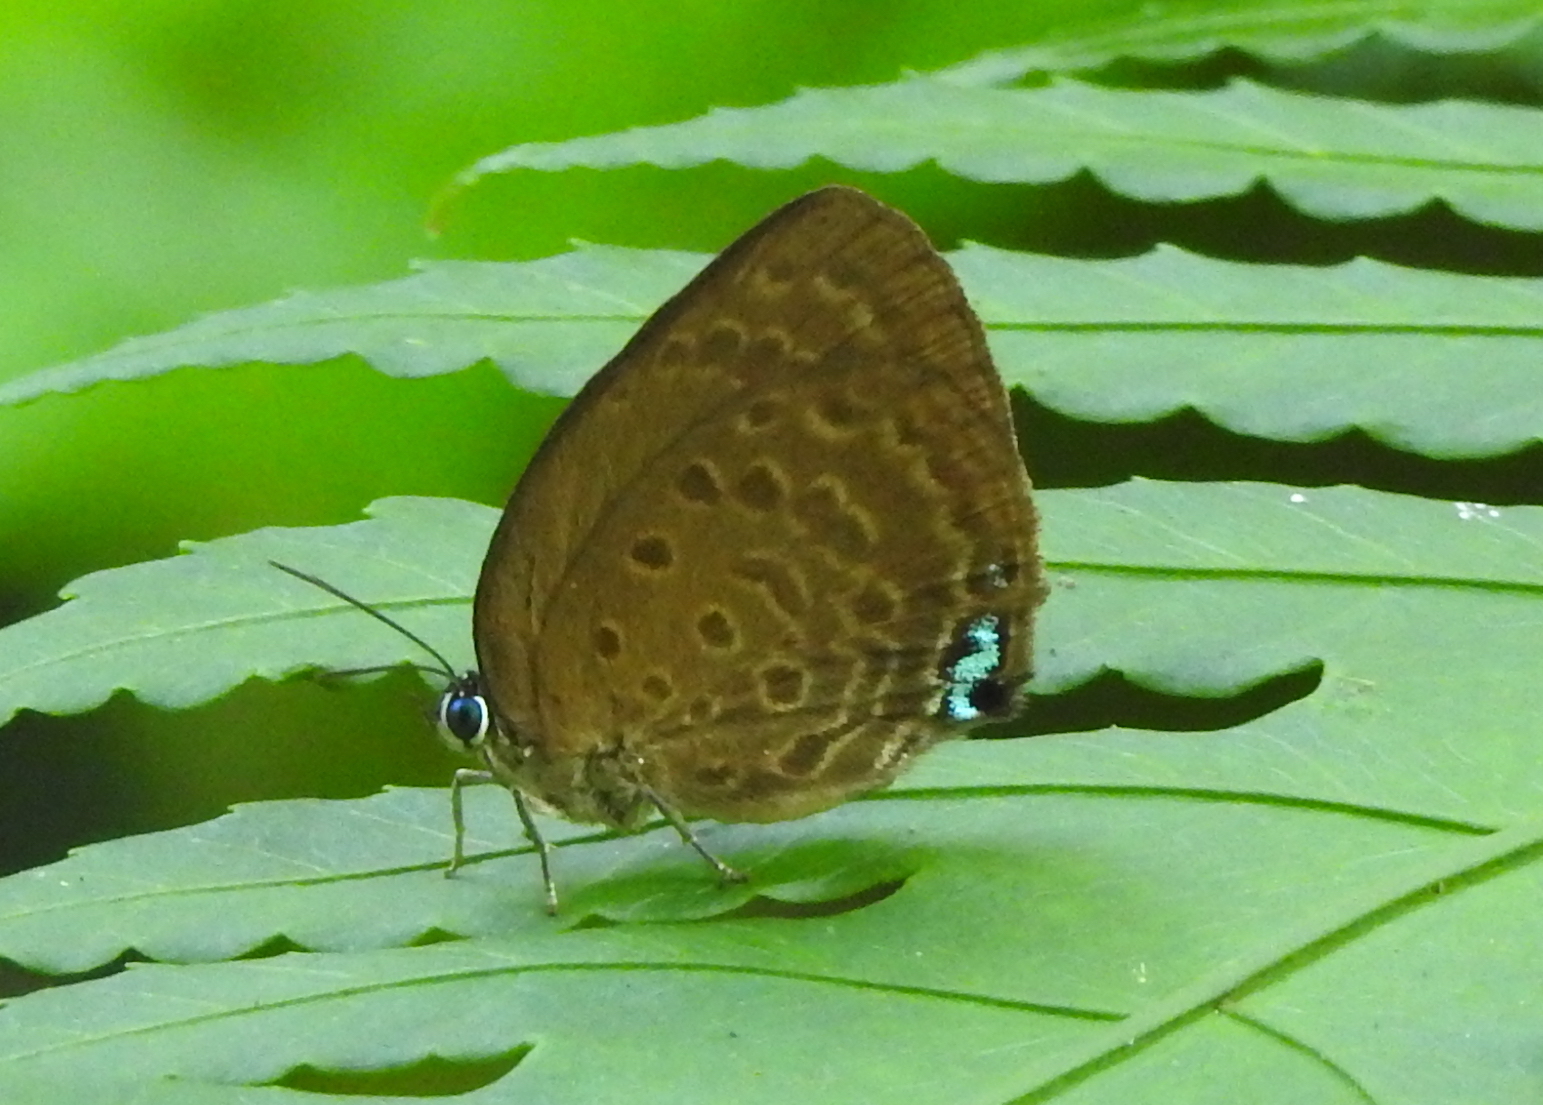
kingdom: Animalia
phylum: Arthropoda
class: Insecta
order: Lepidoptera
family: Lycaenidae
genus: Arhopala
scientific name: Arhopala amphimuta
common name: Broad yellow oakblue
